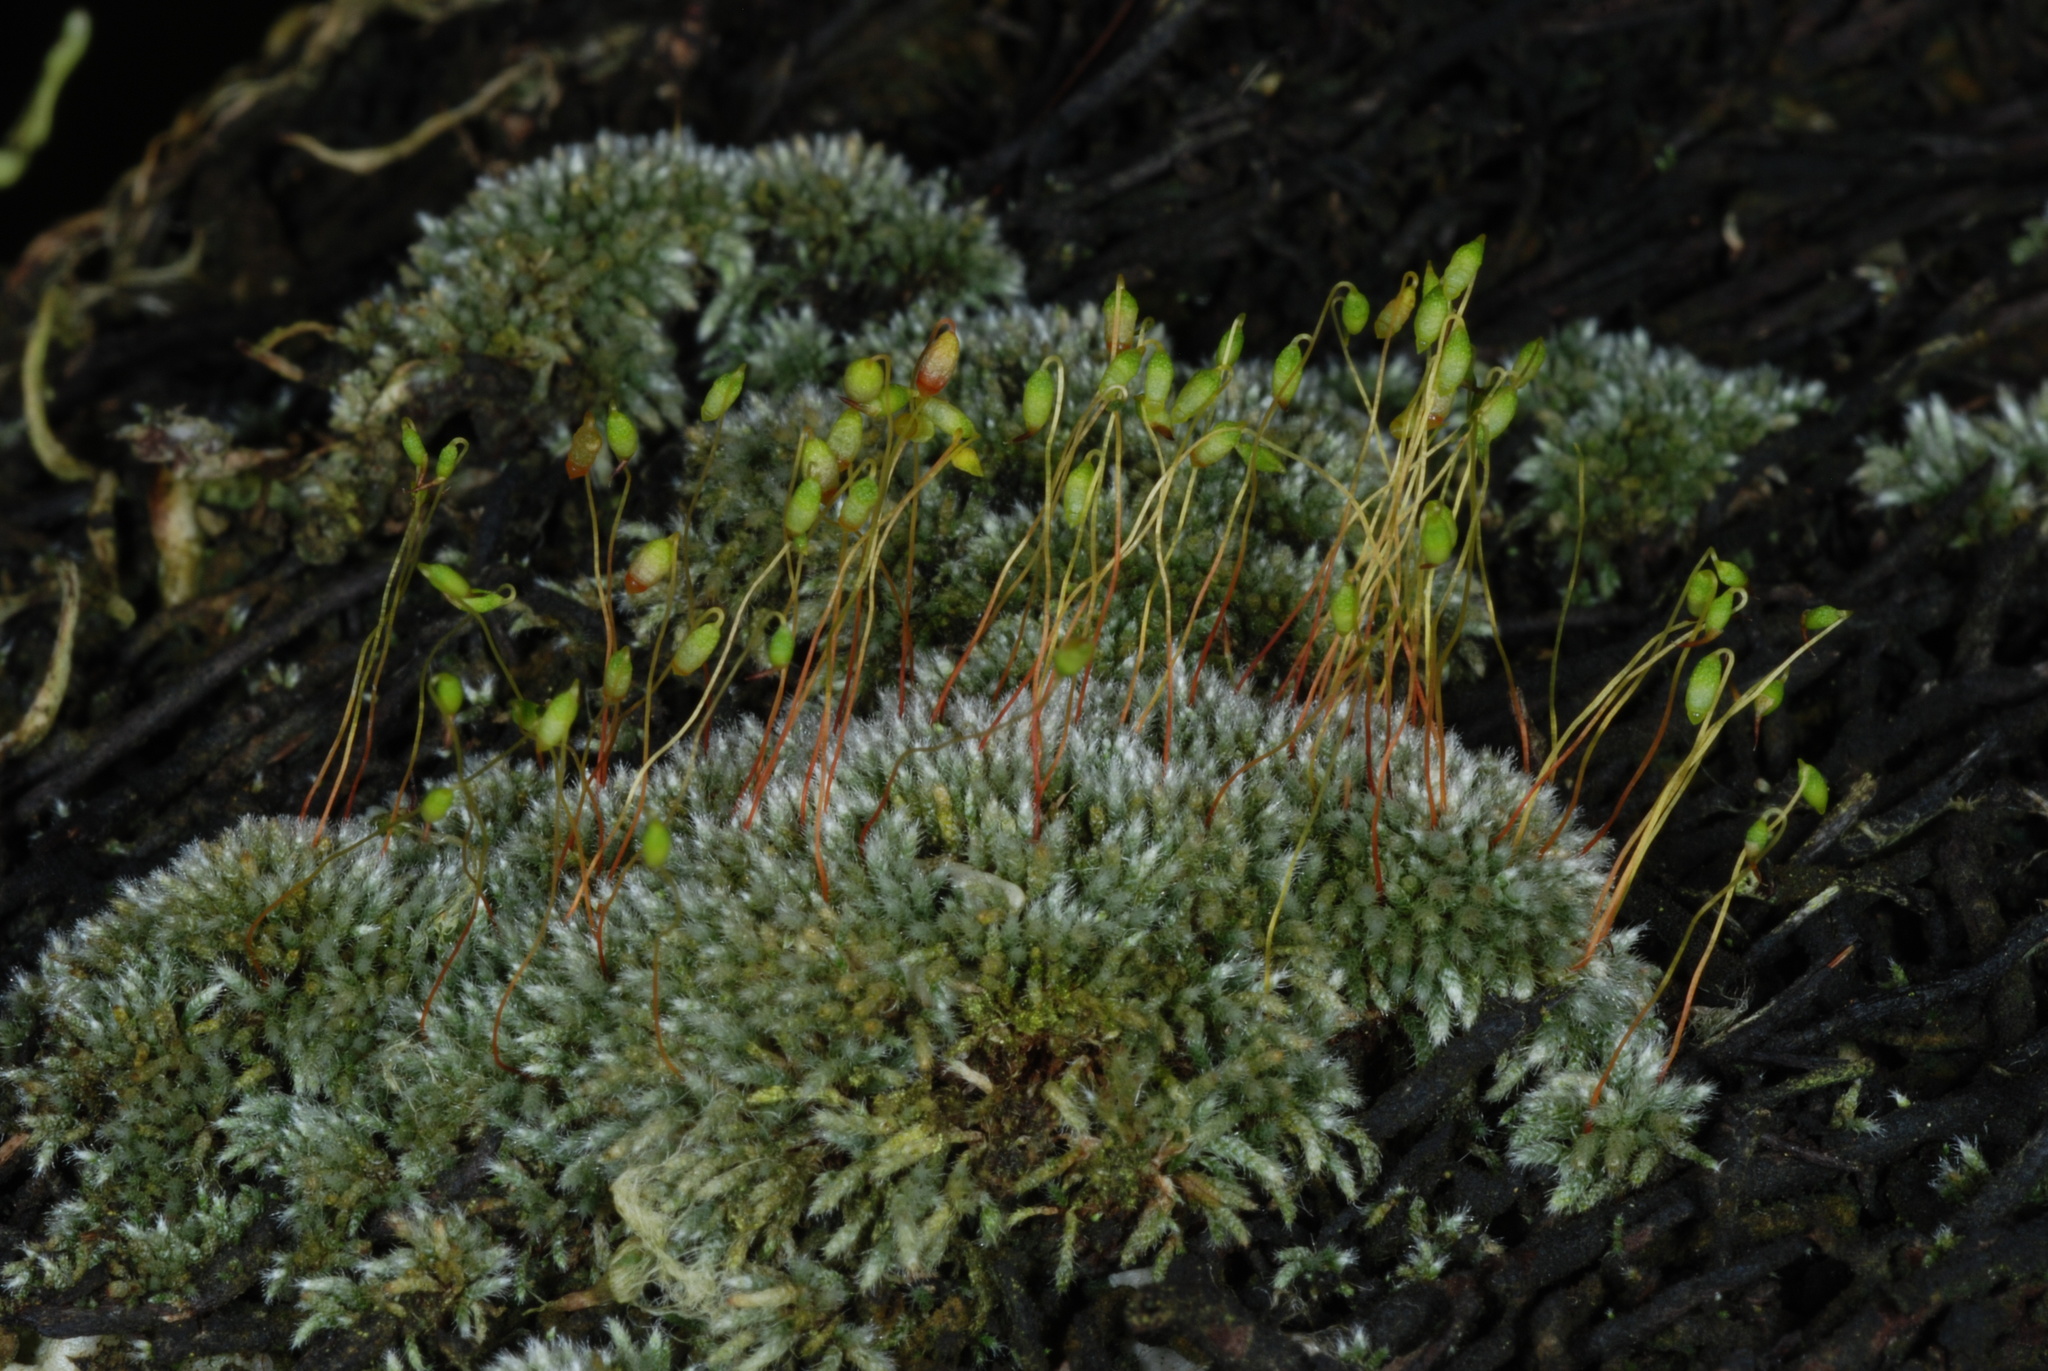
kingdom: Plantae
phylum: Bryophyta
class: Bryopsida
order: Bryales
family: Bryaceae
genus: Bryum
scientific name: Bryum argenteum
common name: Silver-moss
